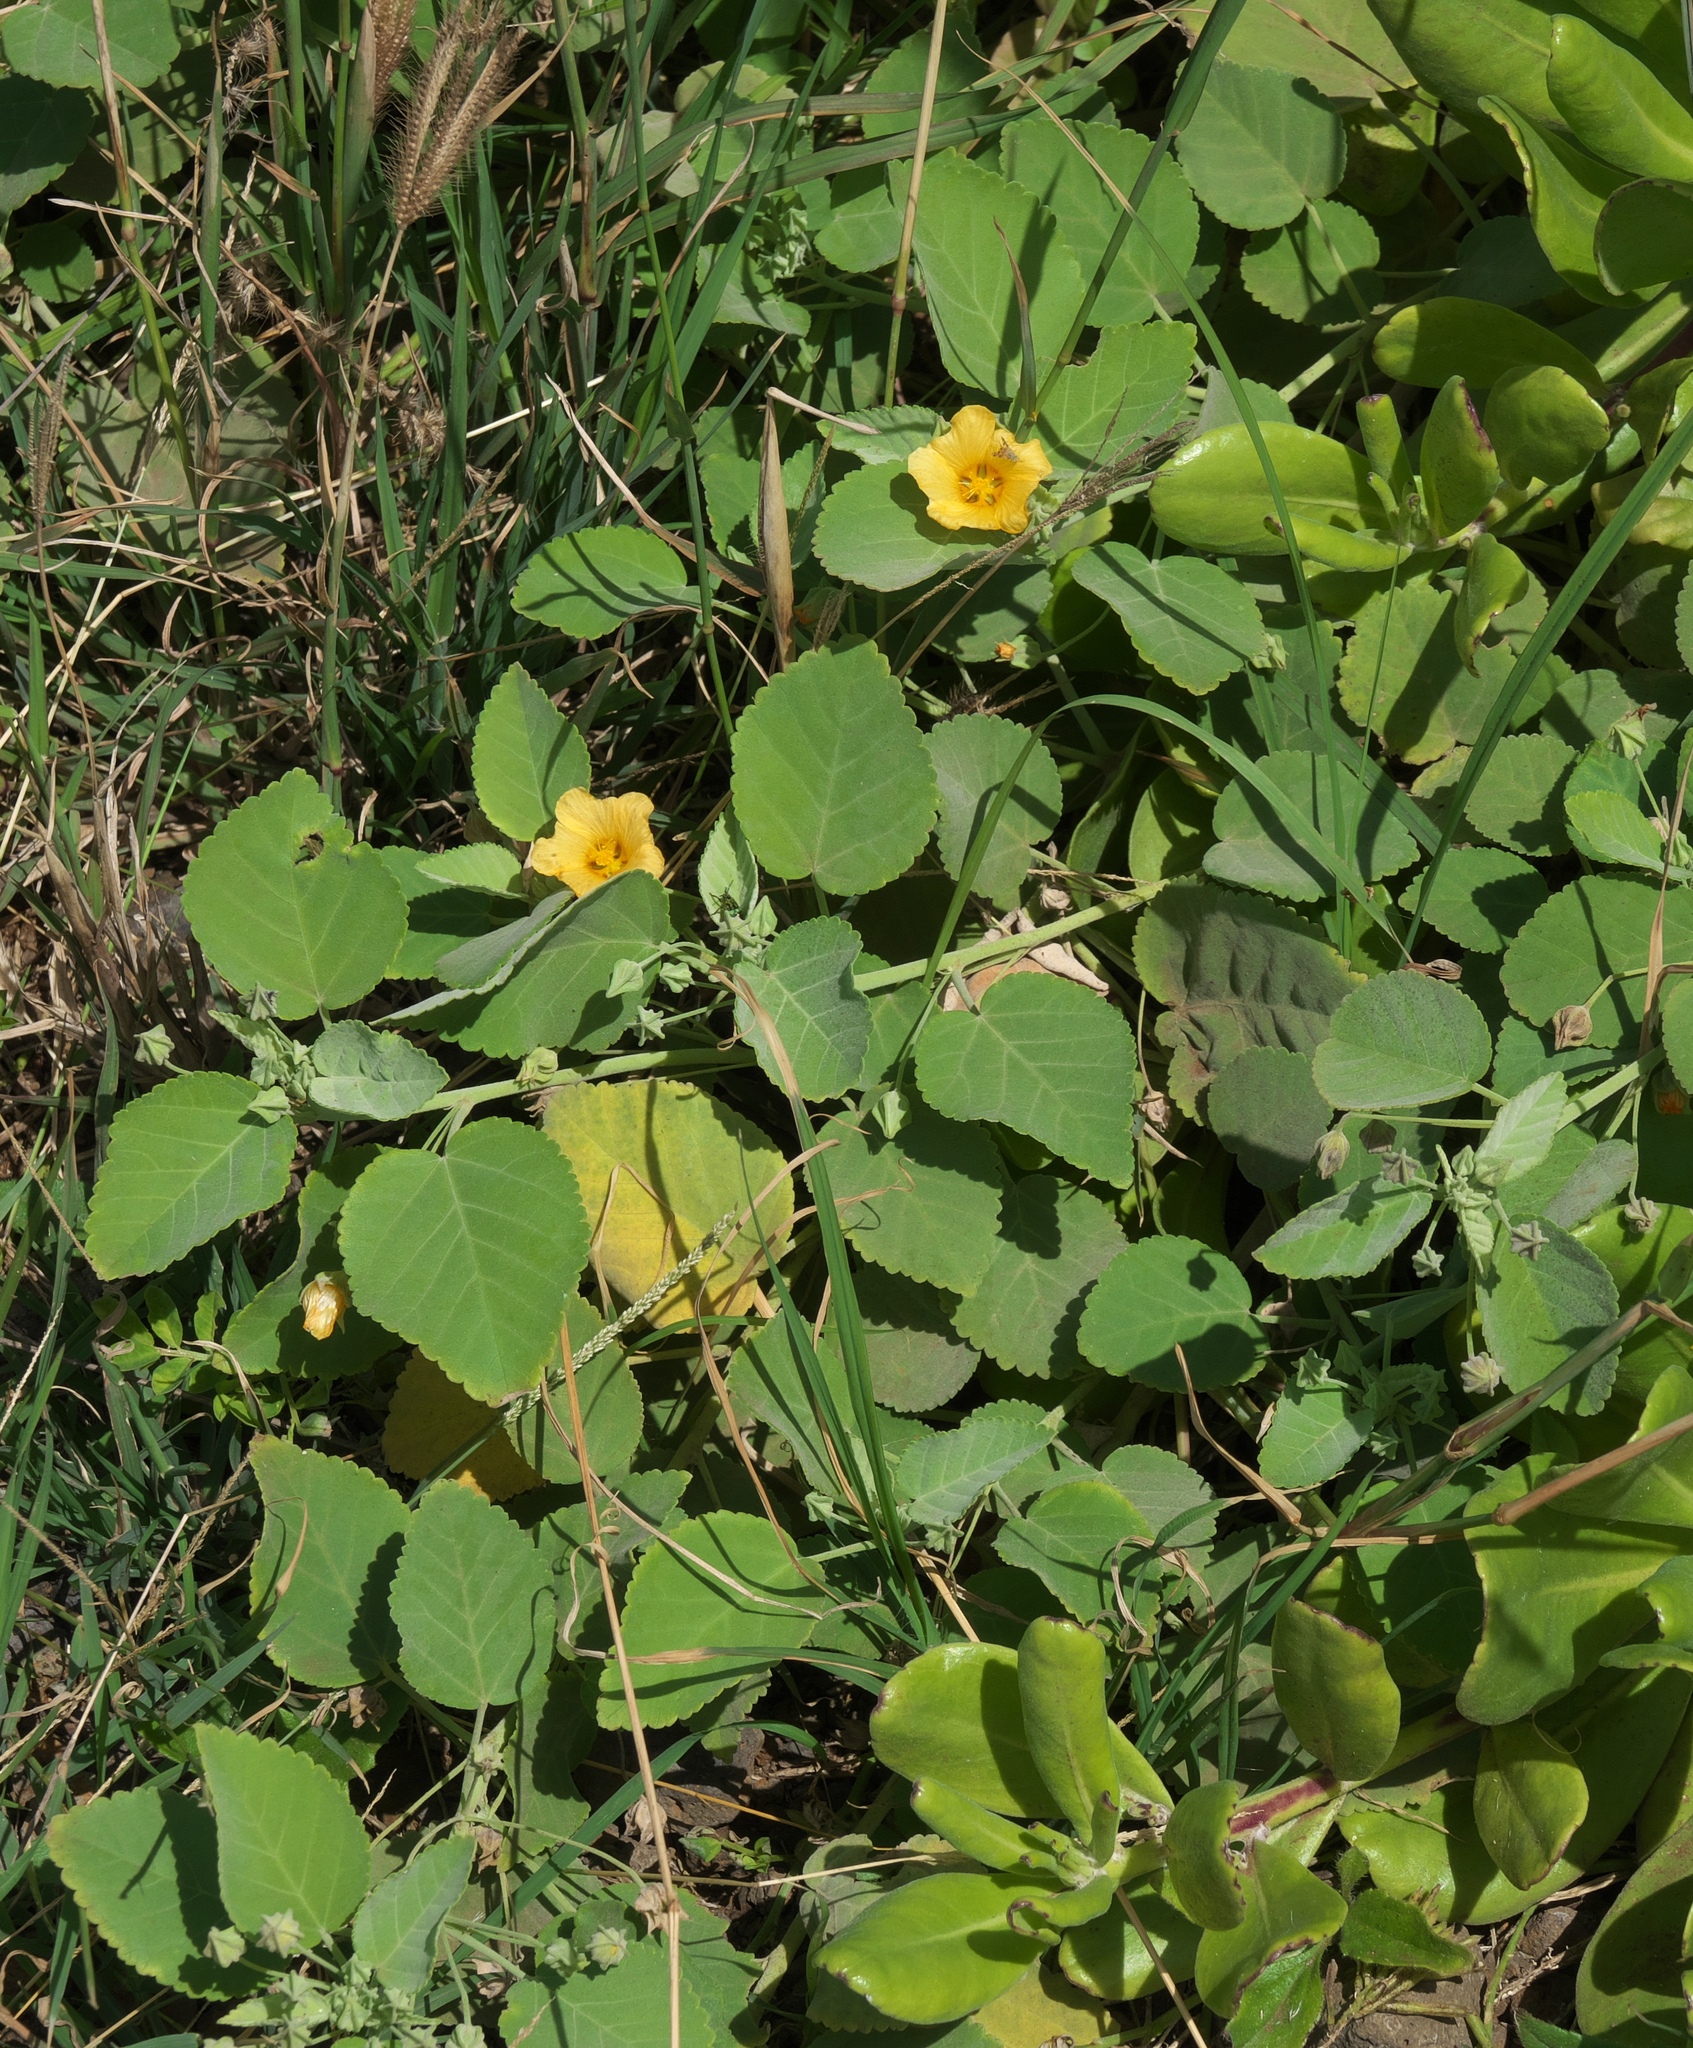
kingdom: Plantae
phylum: Tracheophyta
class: Magnoliopsida
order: Malvales
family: Malvaceae
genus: Sida
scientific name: Sida fallax
